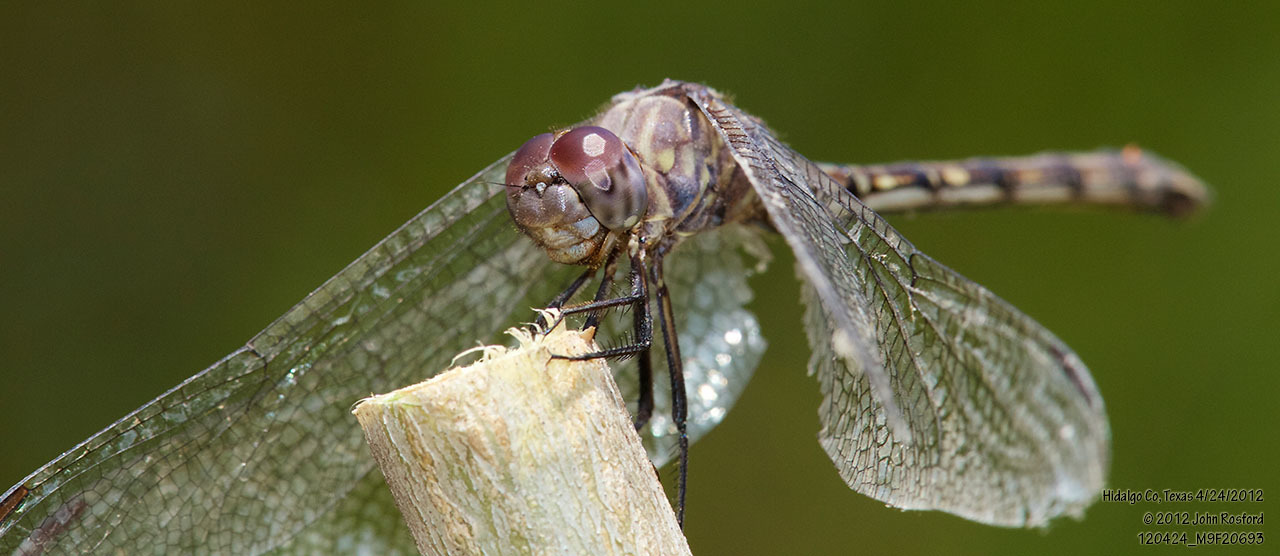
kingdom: Animalia
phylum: Arthropoda
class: Insecta
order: Odonata
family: Libellulidae
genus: Dythemis
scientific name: Dythemis nigrescens
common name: Black setwing
